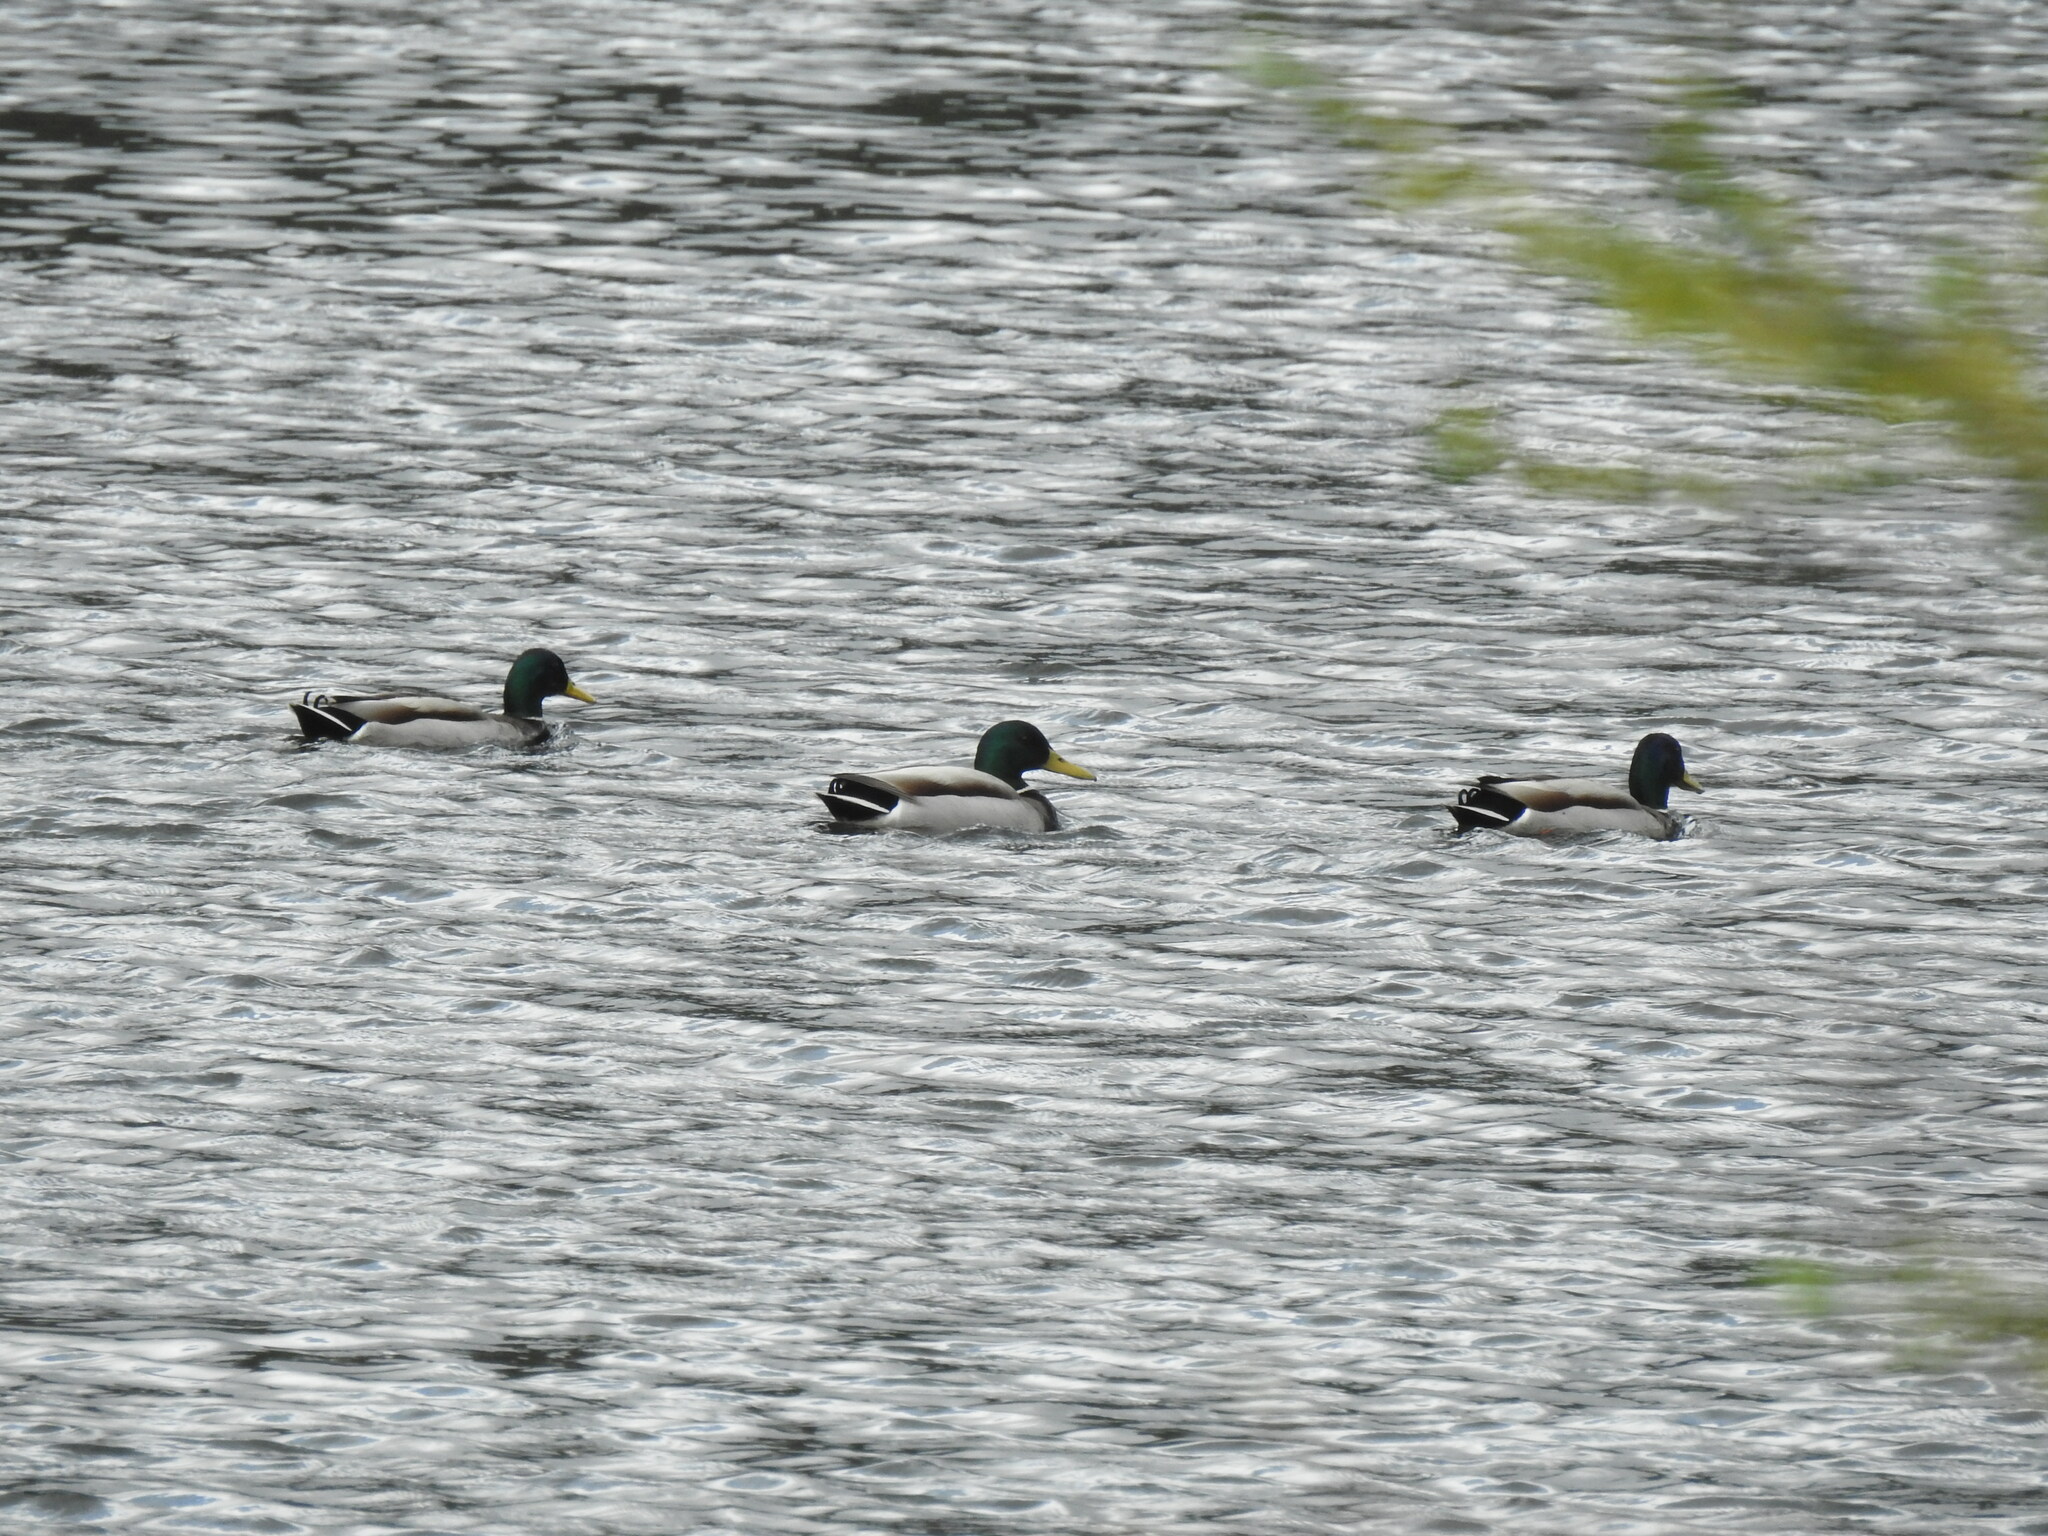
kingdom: Animalia
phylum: Chordata
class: Aves
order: Anseriformes
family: Anatidae
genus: Anas
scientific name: Anas platyrhynchos
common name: Mallard
